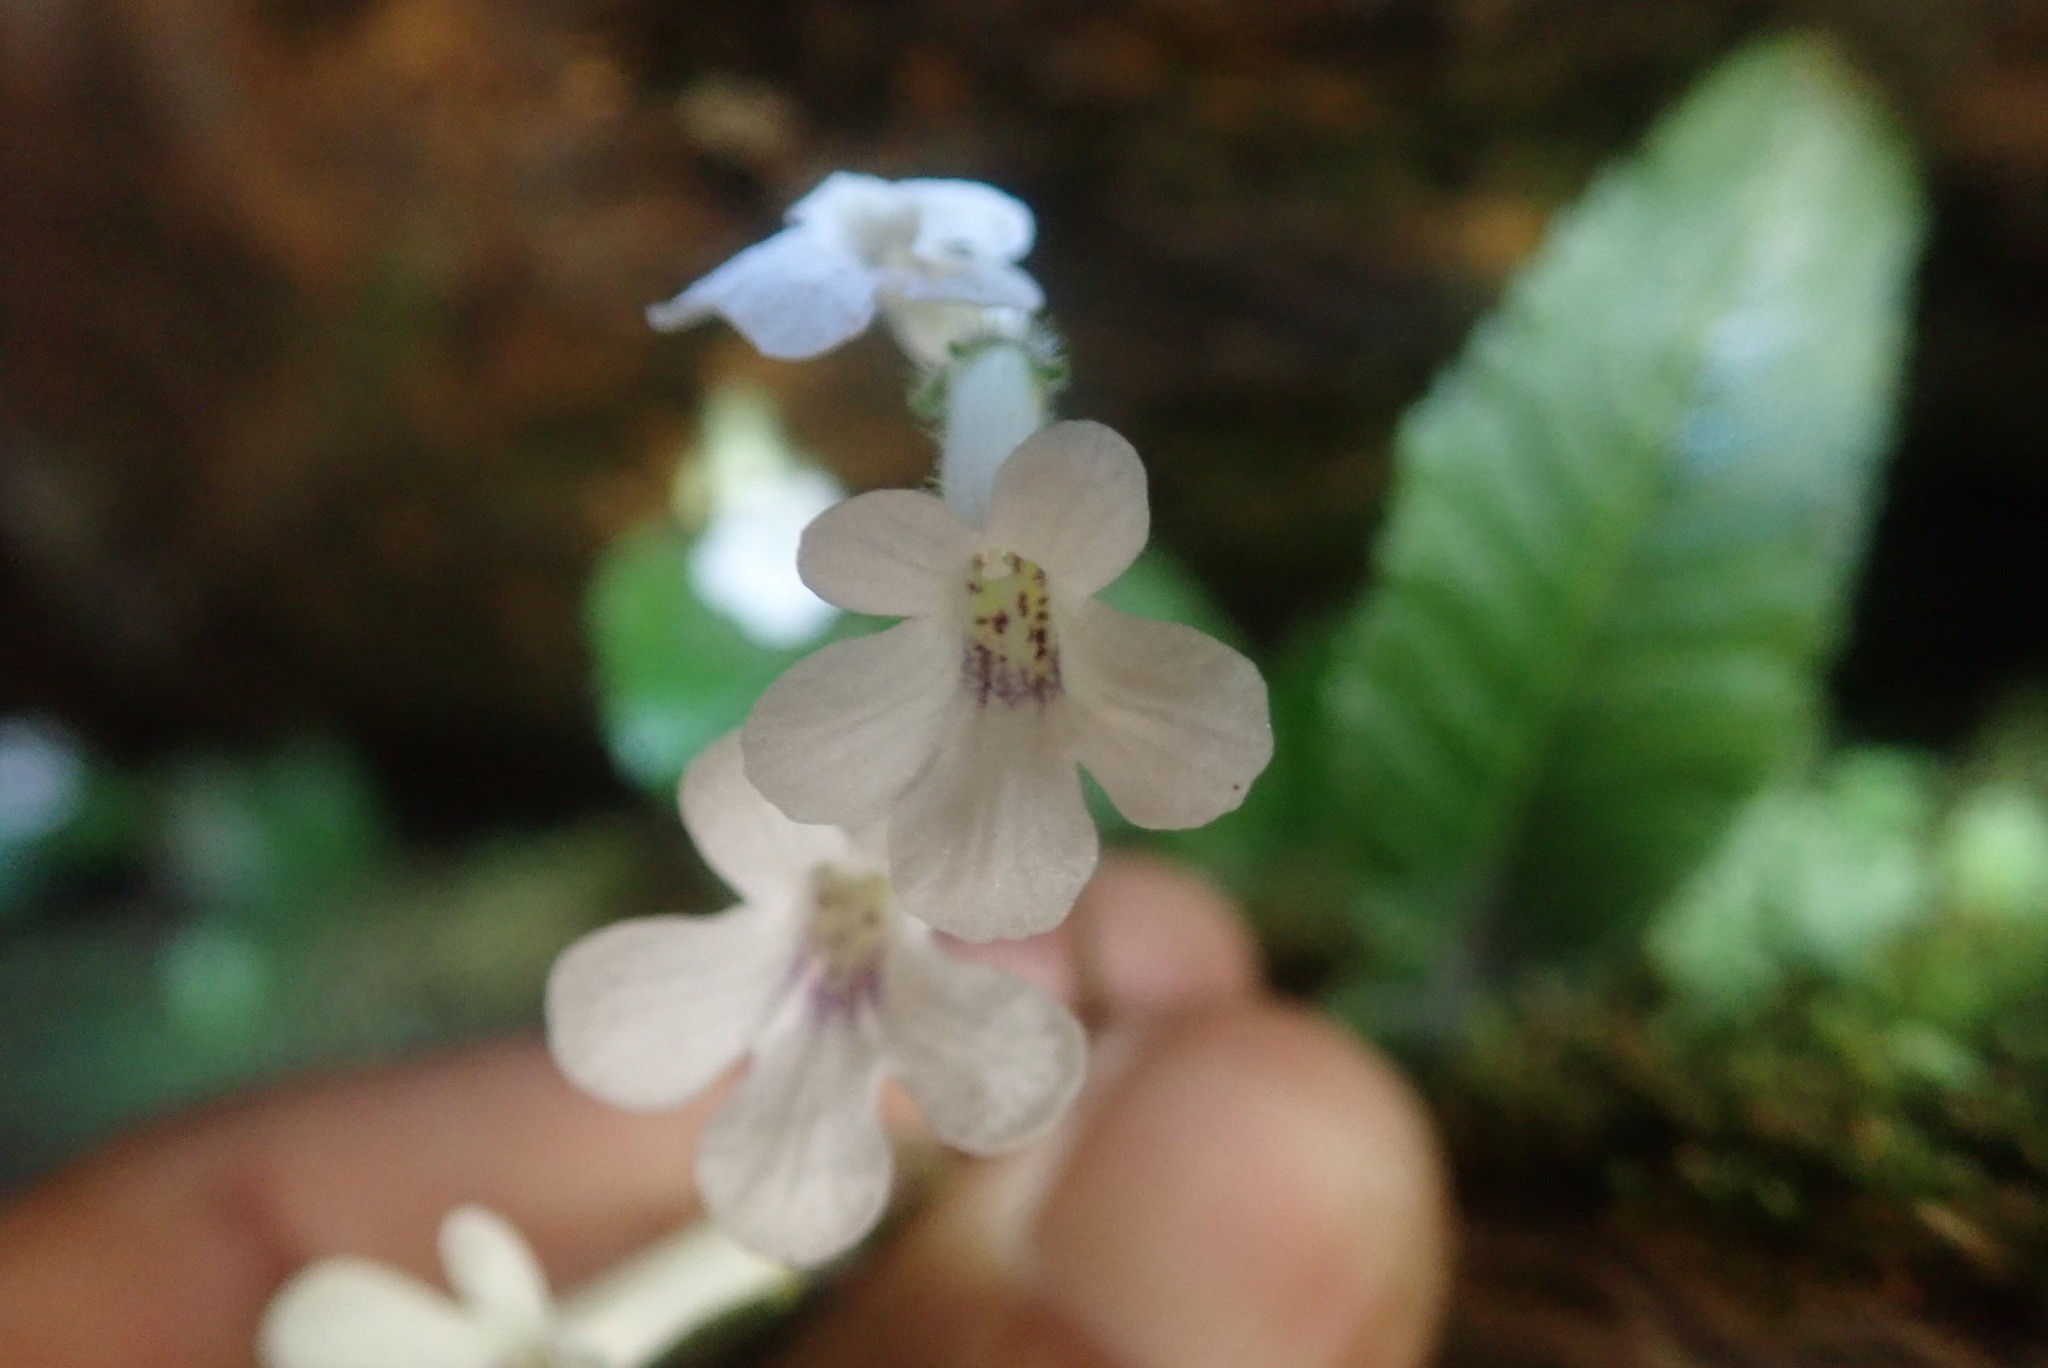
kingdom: Plantae
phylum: Tracheophyta
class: Magnoliopsida
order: Lamiales
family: Gesneriaceae
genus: Streptocarpus
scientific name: Streptocarpus latens
